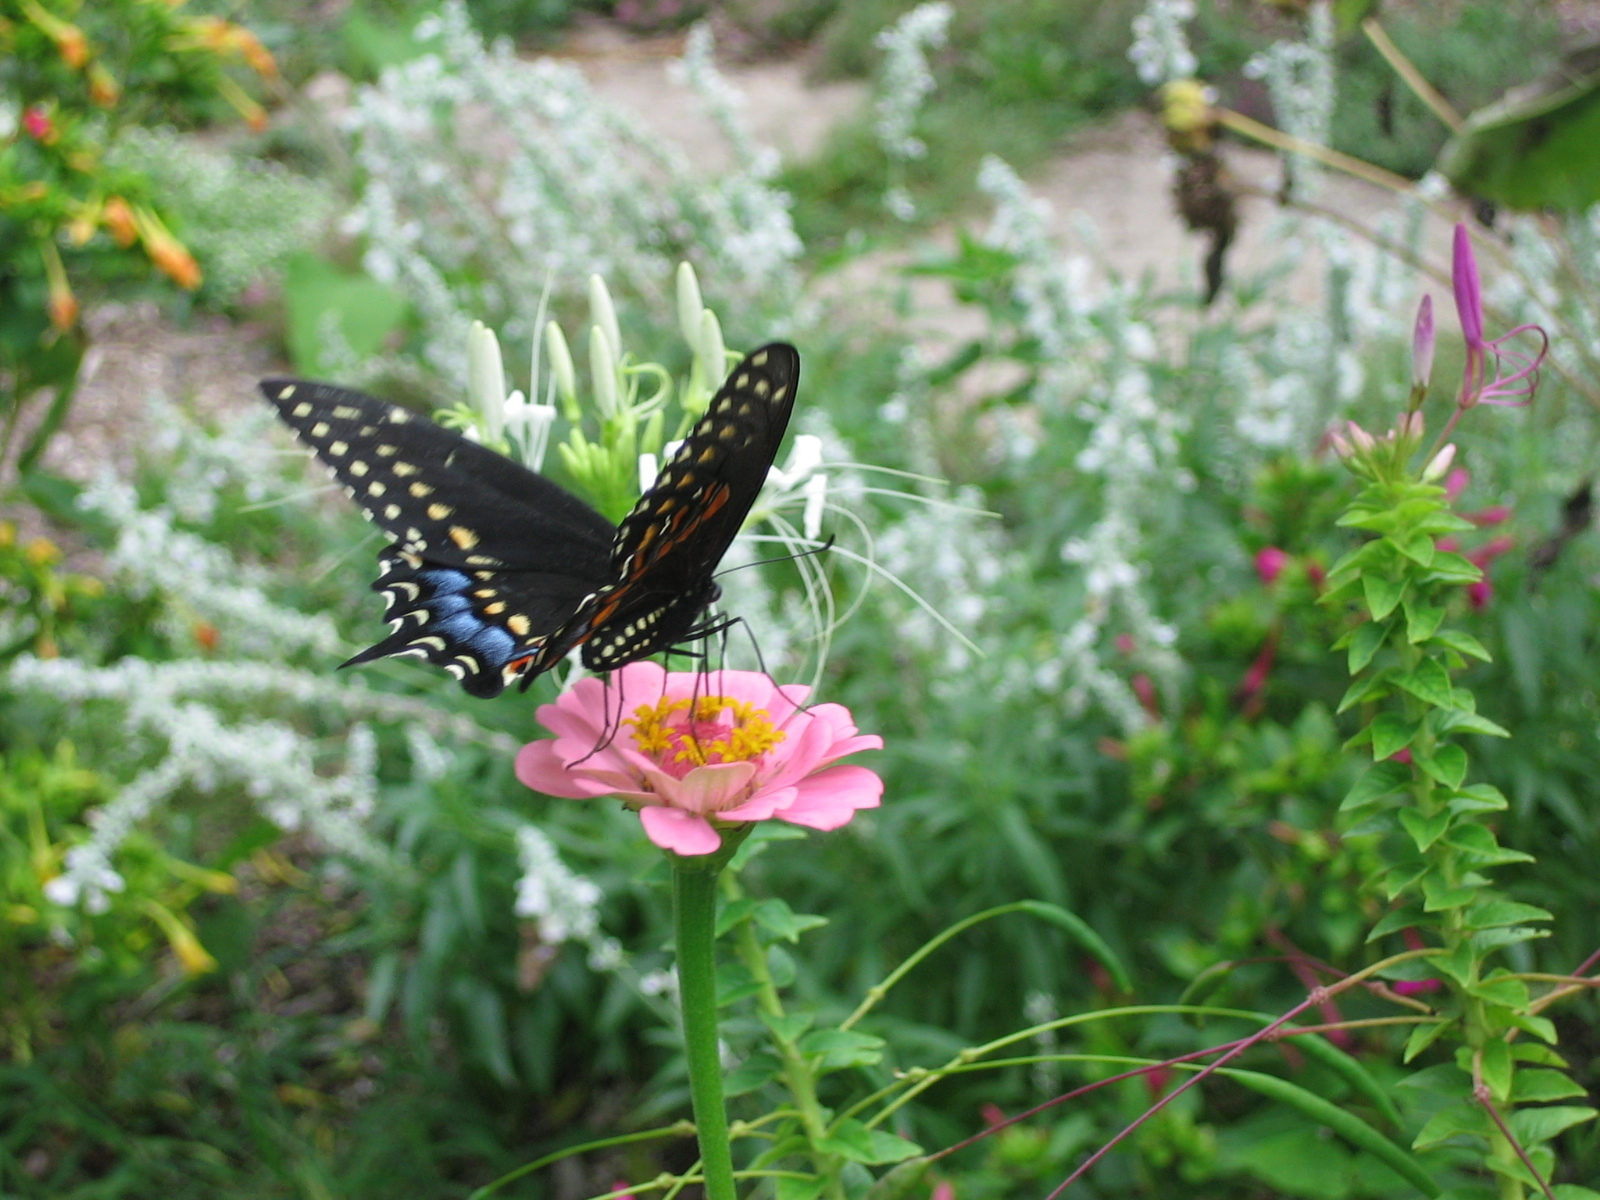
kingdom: Animalia
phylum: Arthropoda
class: Insecta
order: Lepidoptera
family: Papilionidae
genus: Papilio
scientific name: Papilio polyxenes
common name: Black swallowtail
